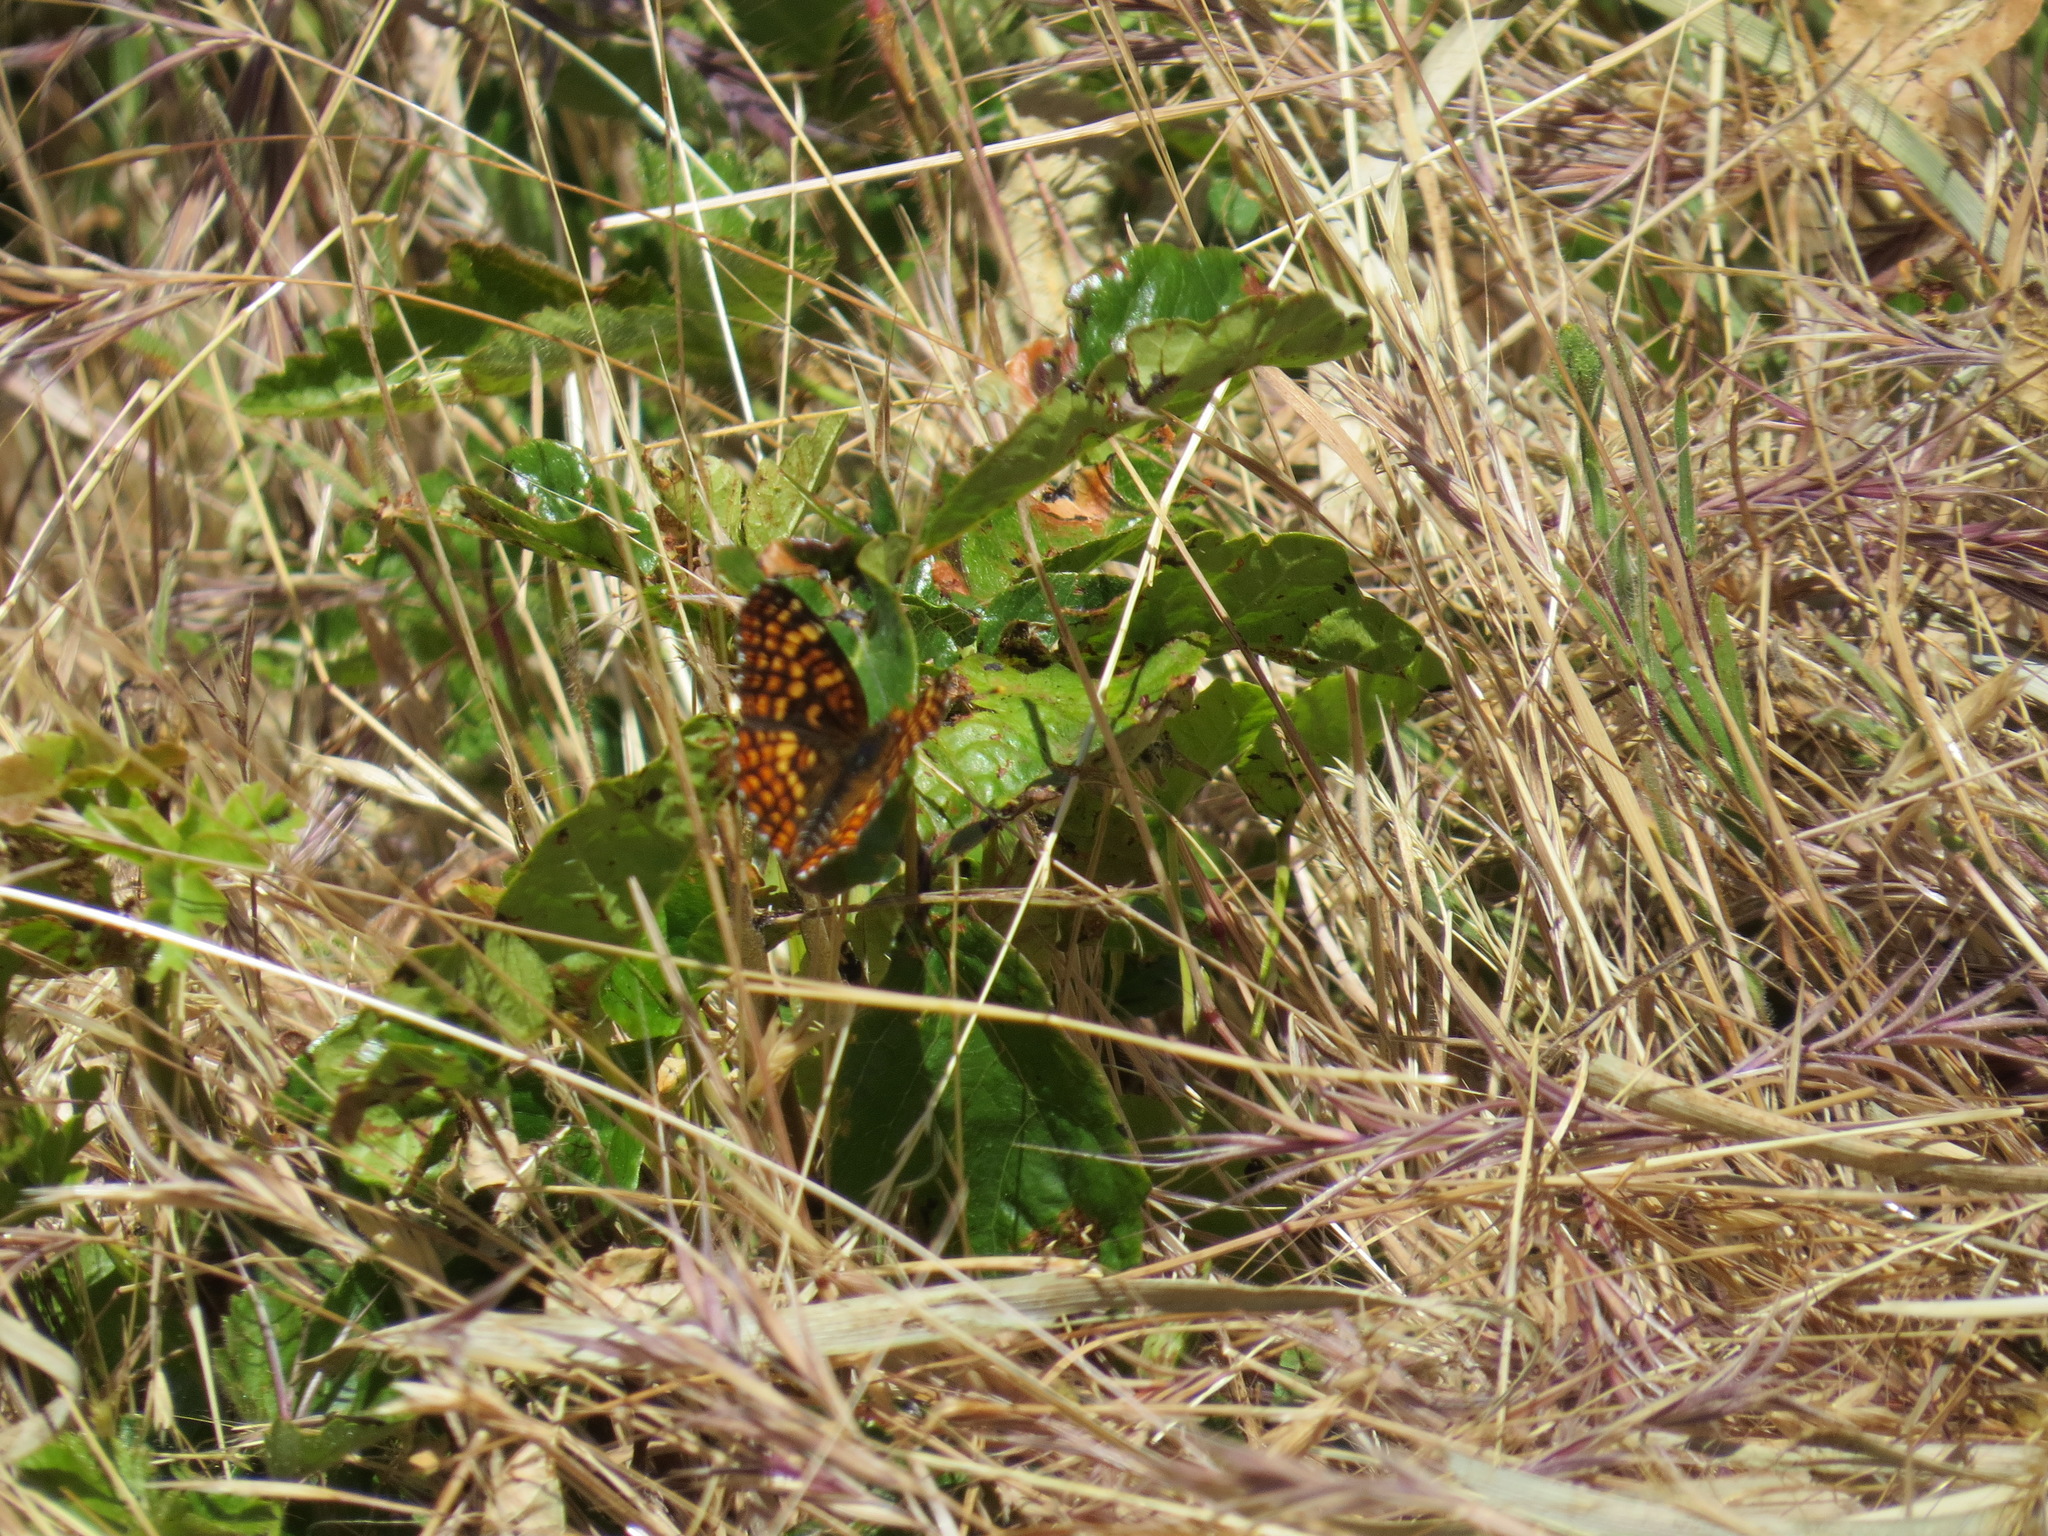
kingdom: Animalia
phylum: Arthropoda
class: Insecta
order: Lepidoptera
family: Nymphalidae
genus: Chlosyne
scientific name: Chlosyne palla
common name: Northern checkerspot
